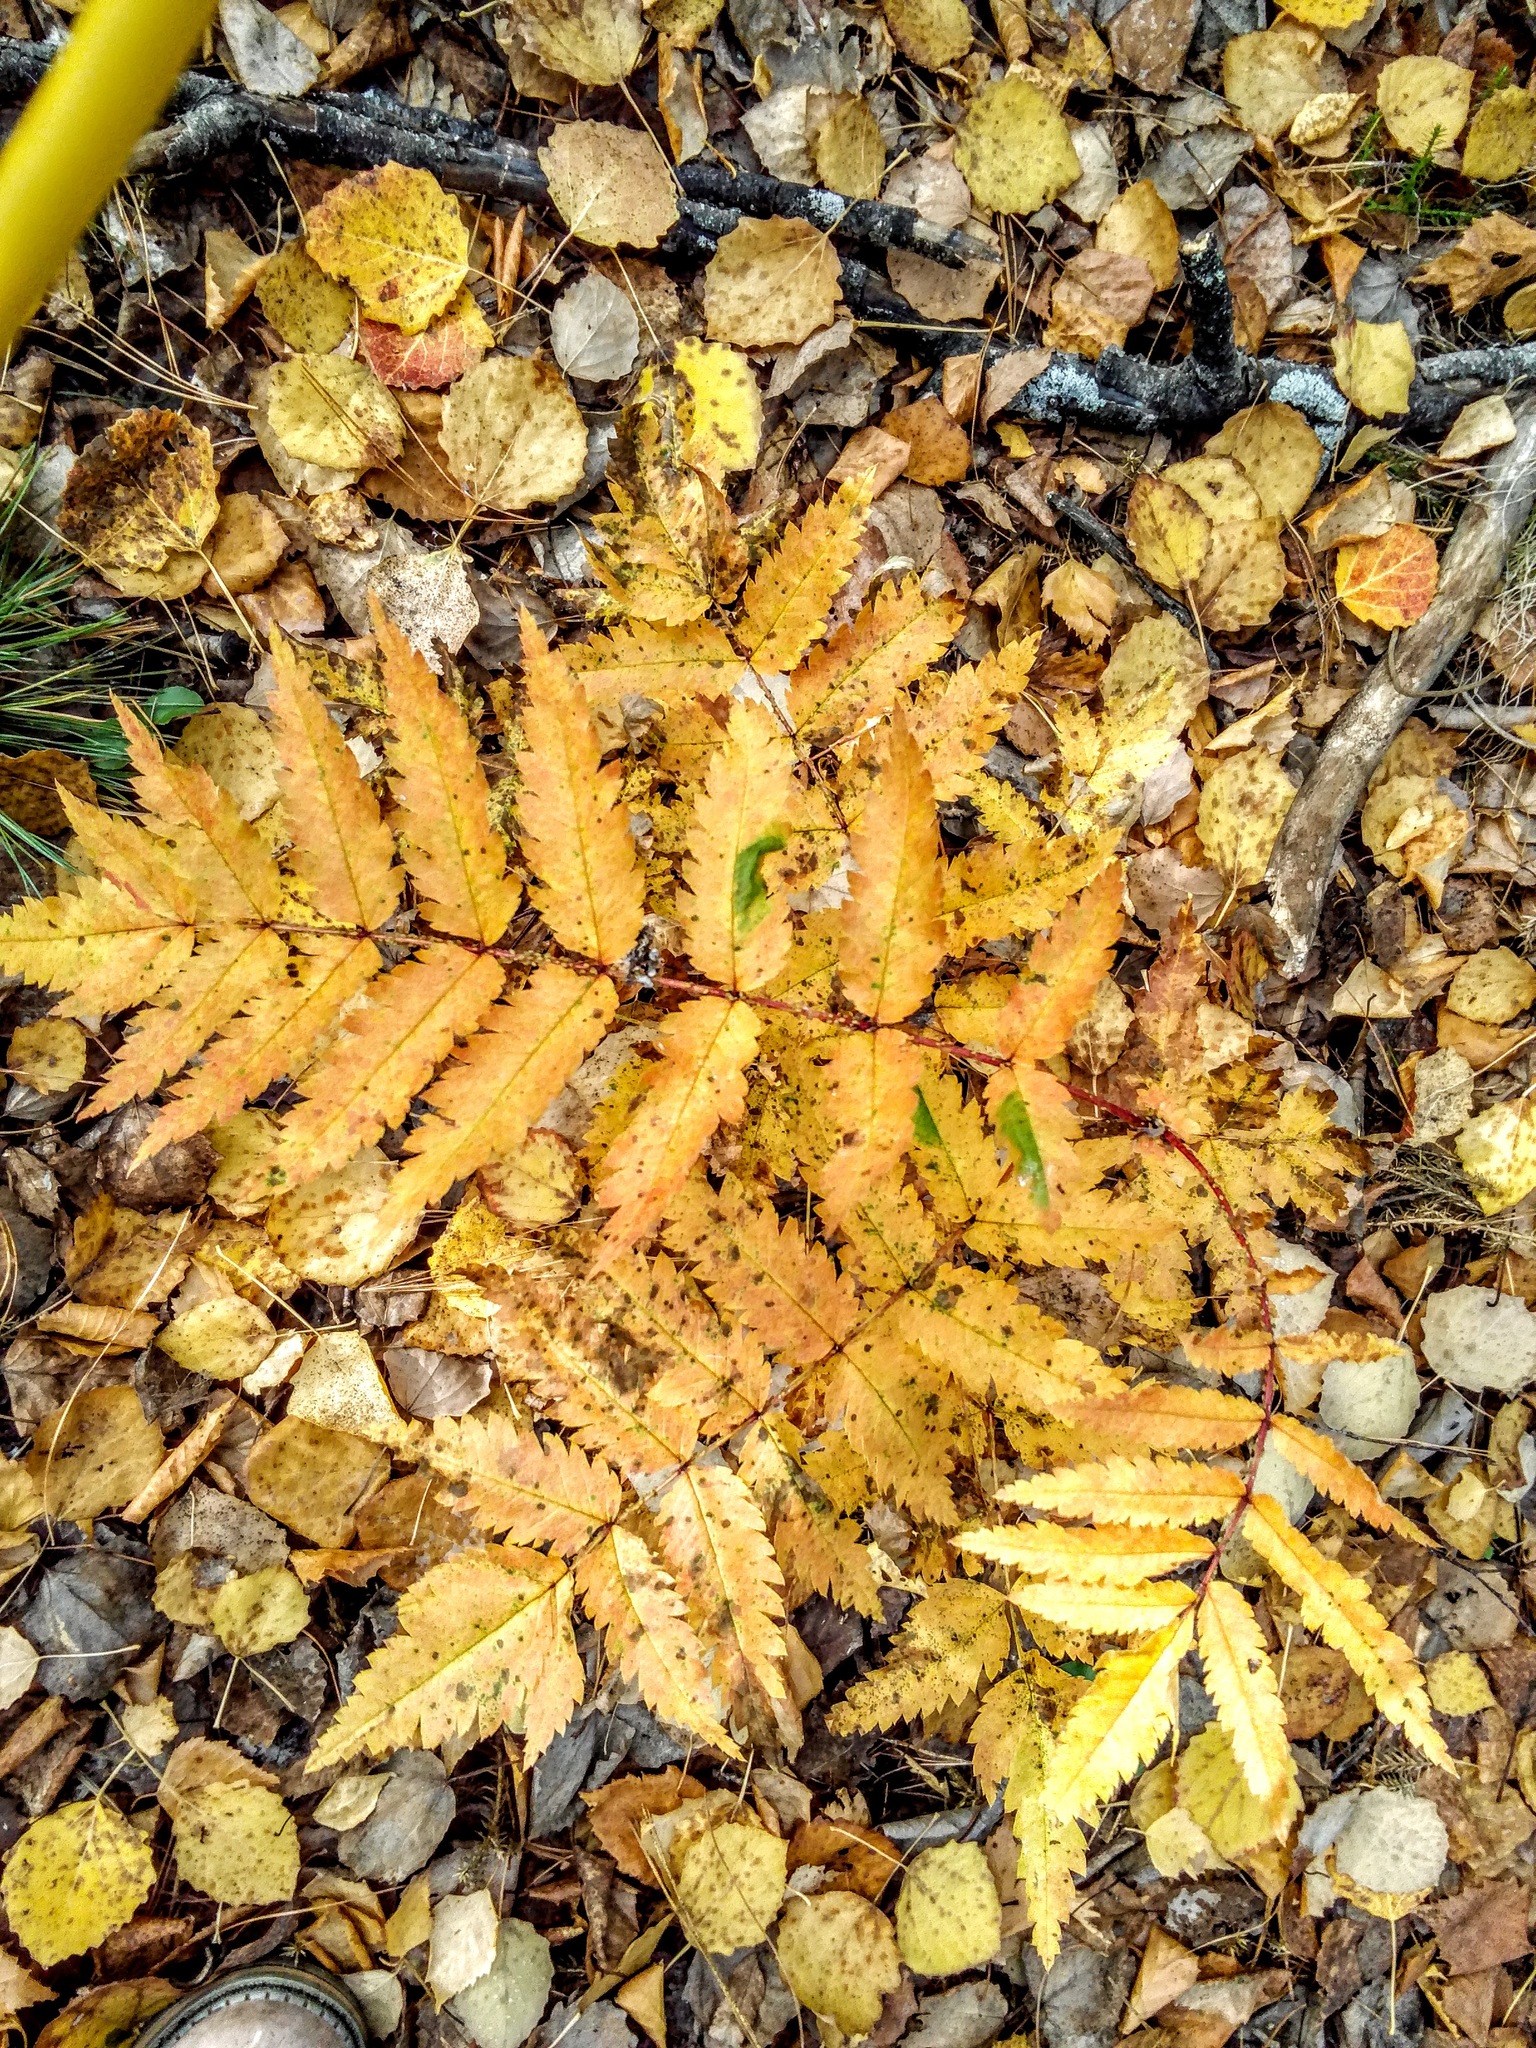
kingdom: Plantae
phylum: Tracheophyta
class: Magnoliopsida
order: Rosales
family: Rosaceae
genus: Sorbus
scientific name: Sorbus aucuparia
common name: Rowan
